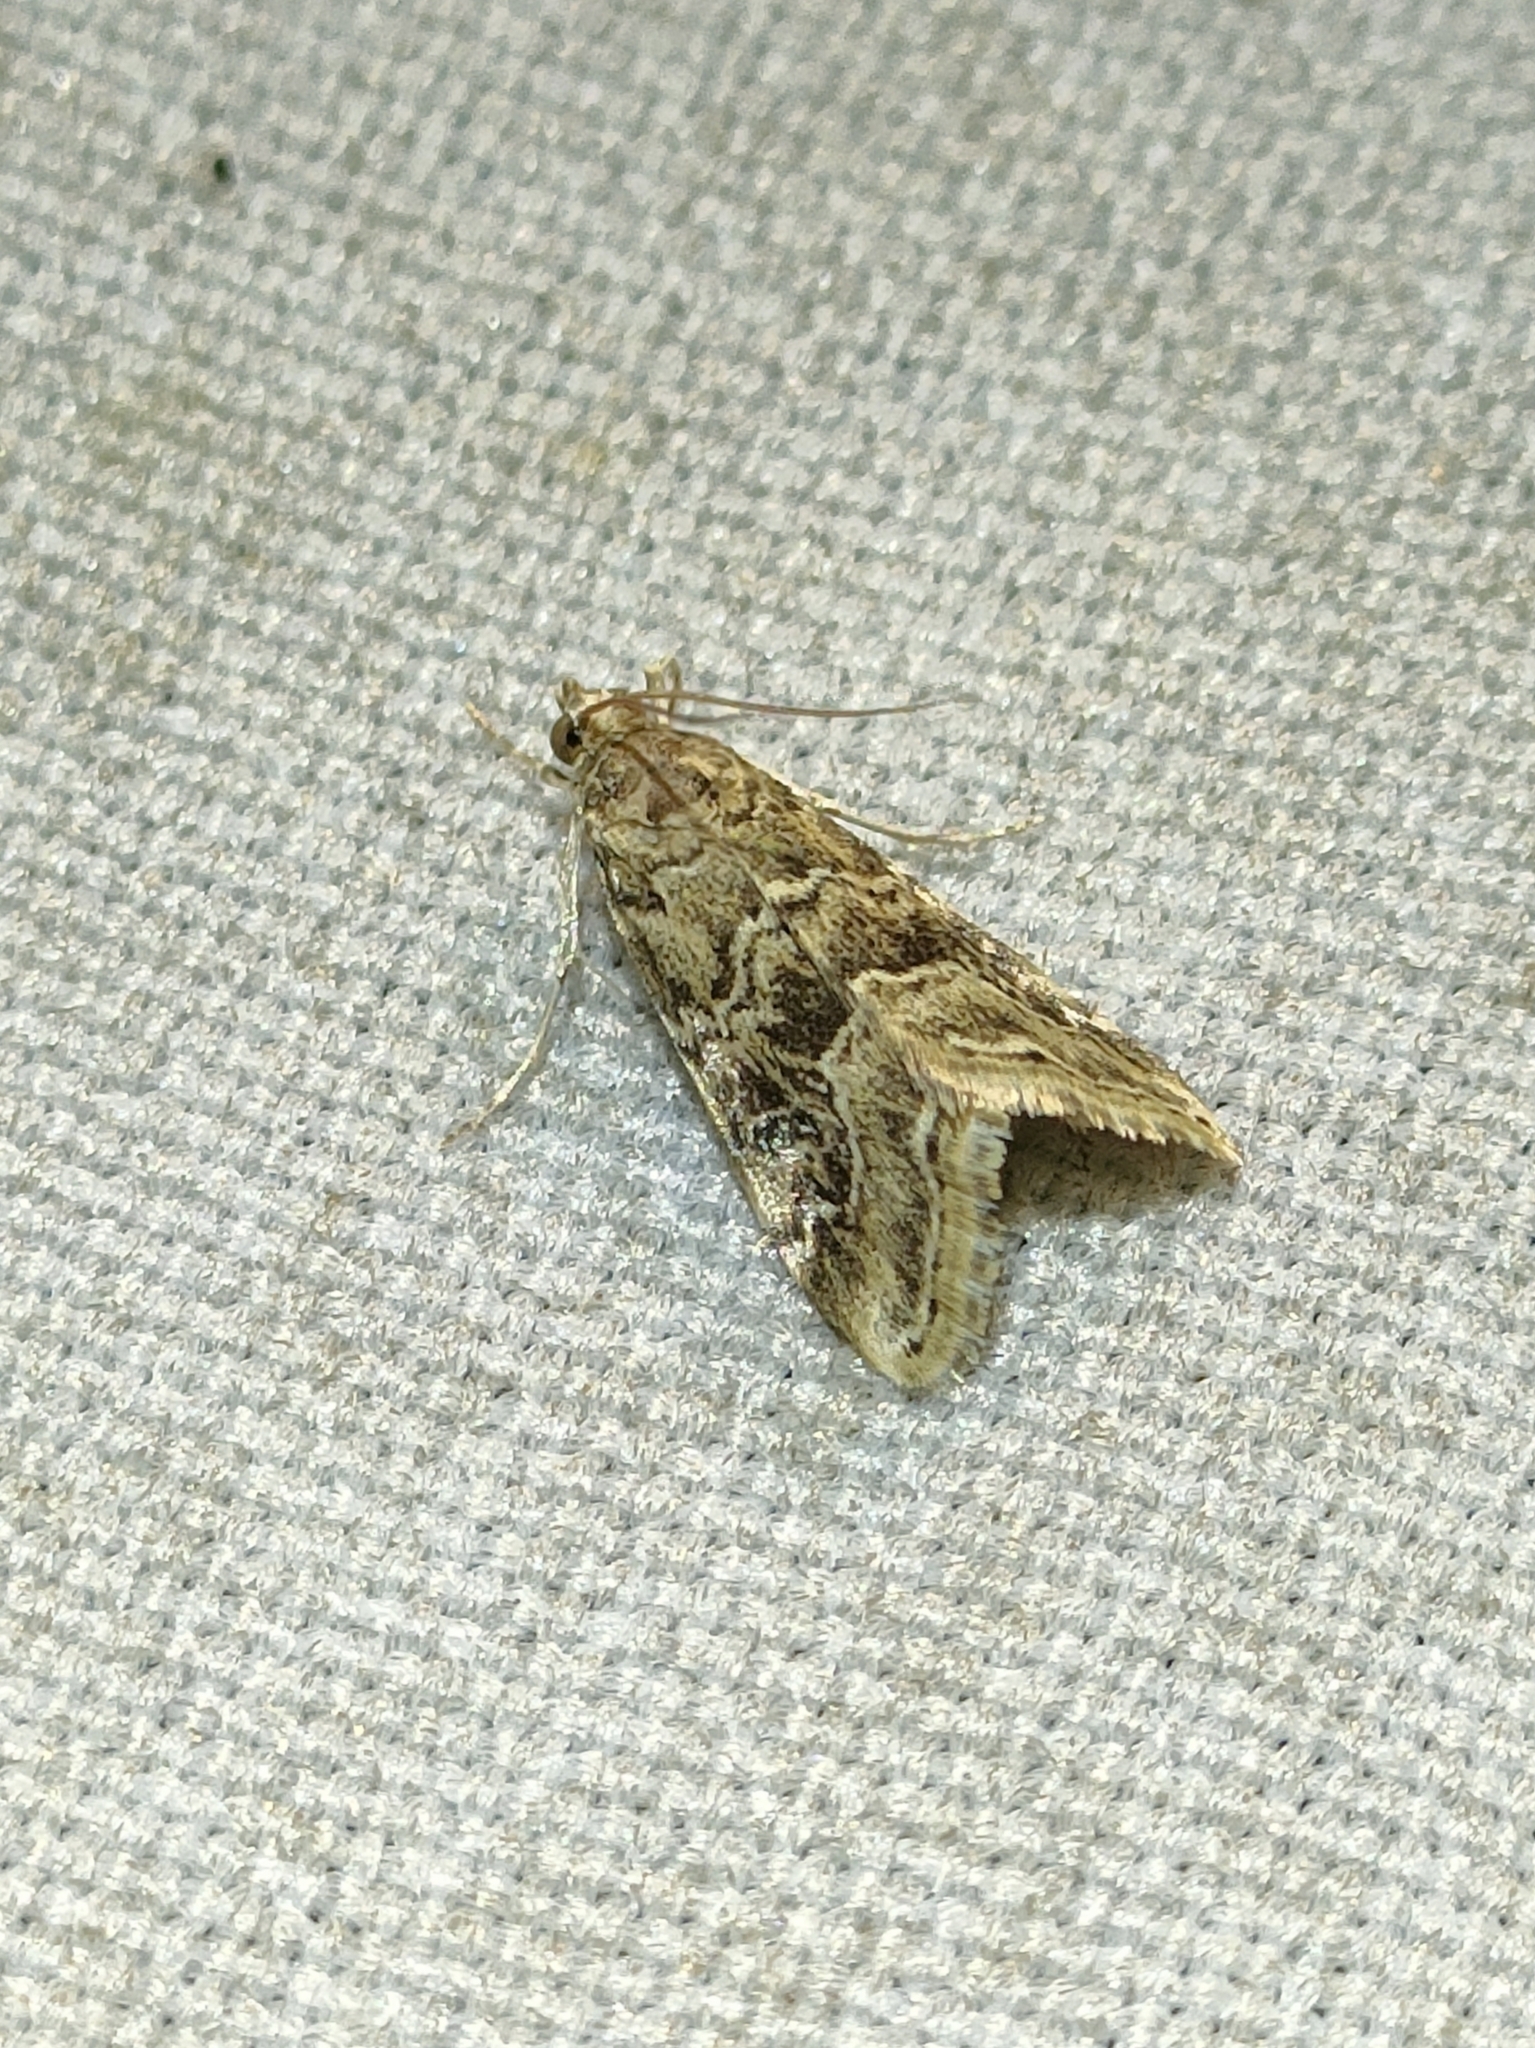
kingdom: Animalia
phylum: Arthropoda
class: Insecta
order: Lepidoptera
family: Crambidae
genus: Hellula
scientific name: Hellula undalis
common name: Cabbage webworm
